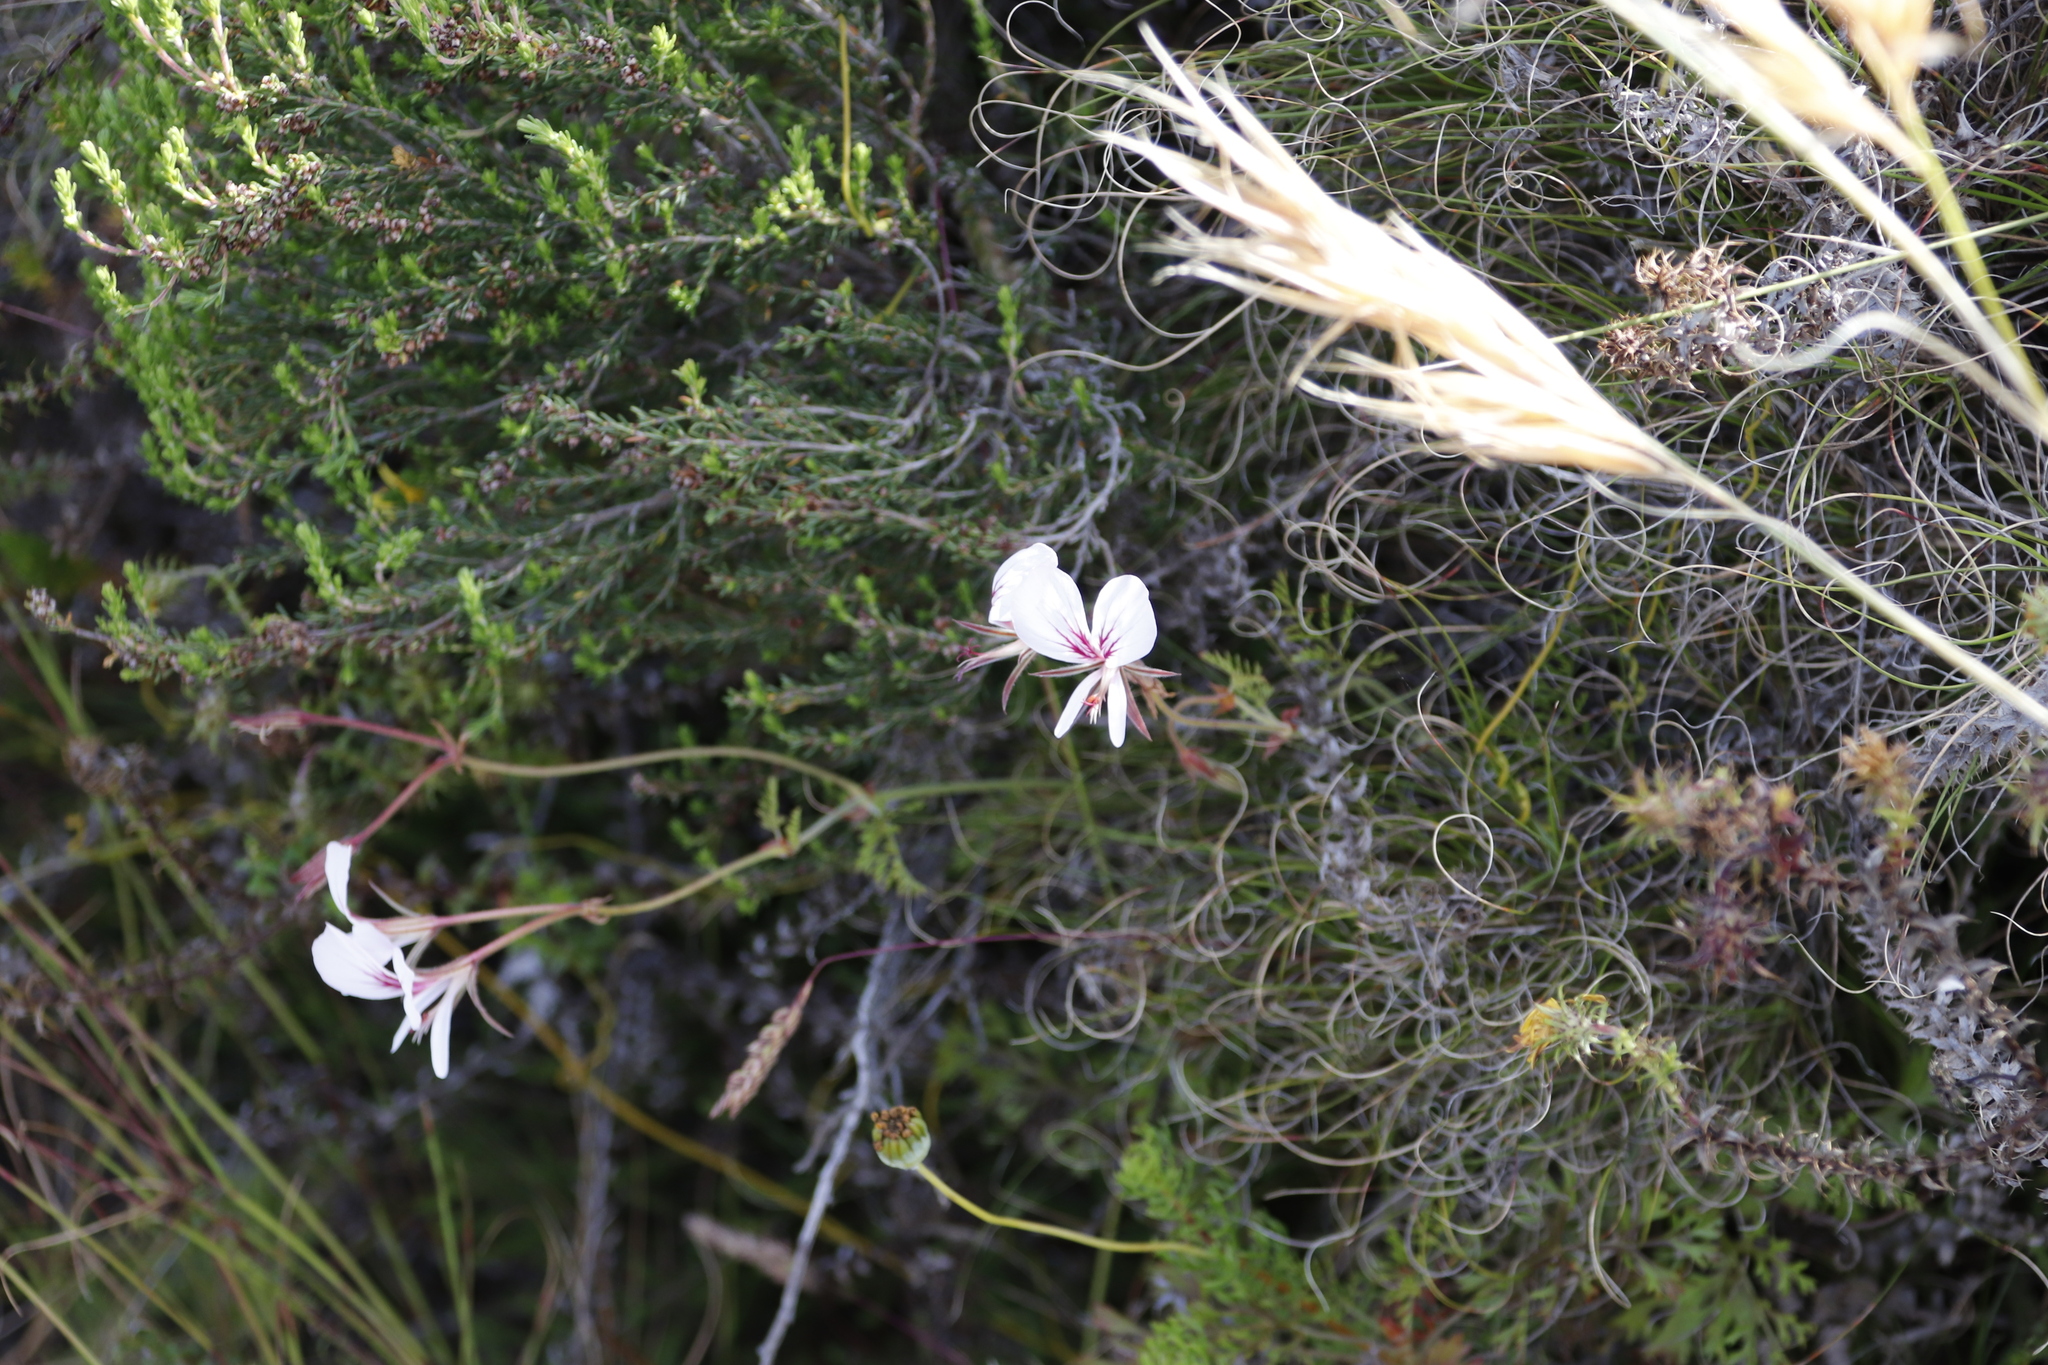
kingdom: Plantae
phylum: Tracheophyta
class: Magnoliopsida
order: Geraniales
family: Geraniaceae
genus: Pelargonium
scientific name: Pelargonium longicaule
